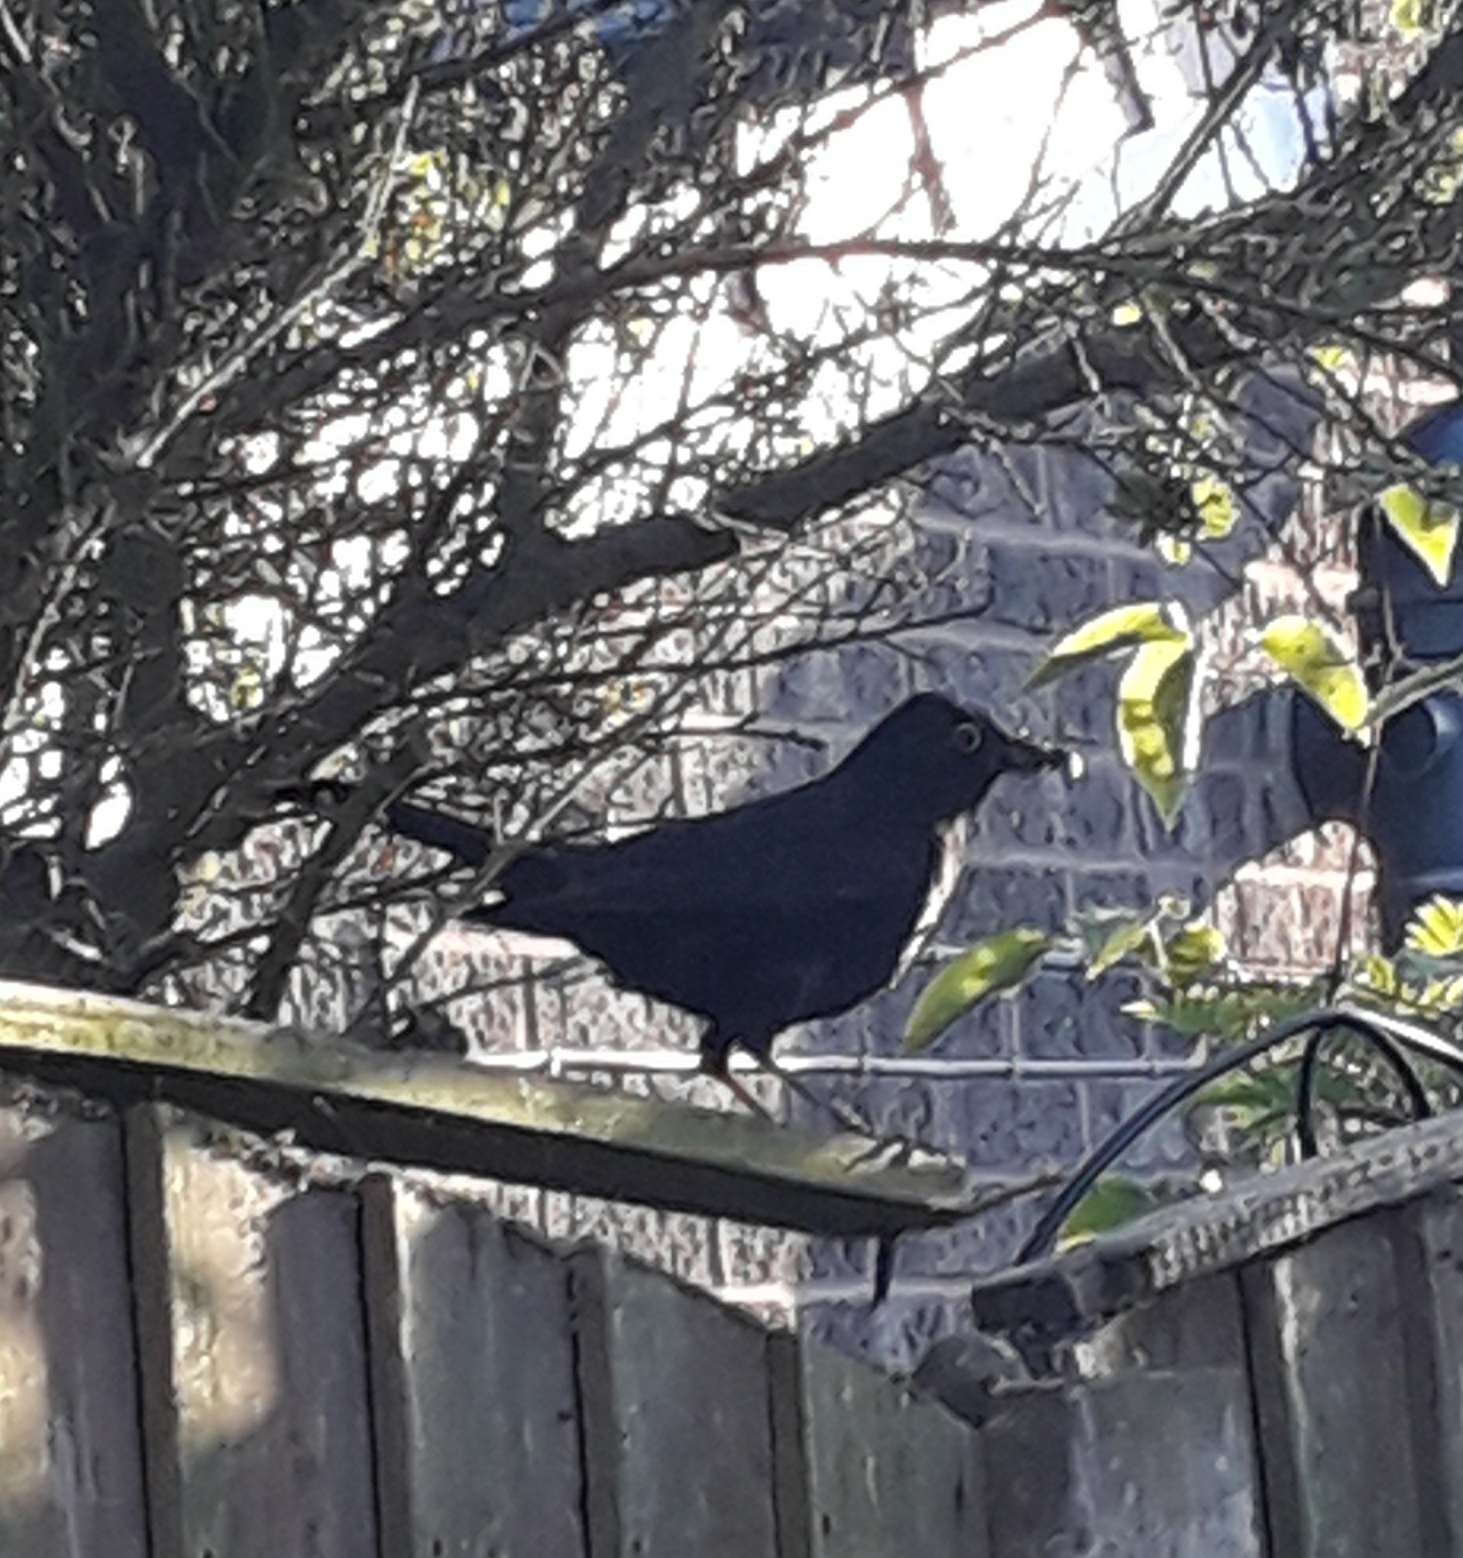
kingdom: Animalia
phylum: Chordata
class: Aves
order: Passeriformes
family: Turdidae
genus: Turdus
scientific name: Turdus merula
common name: Common blackbird
